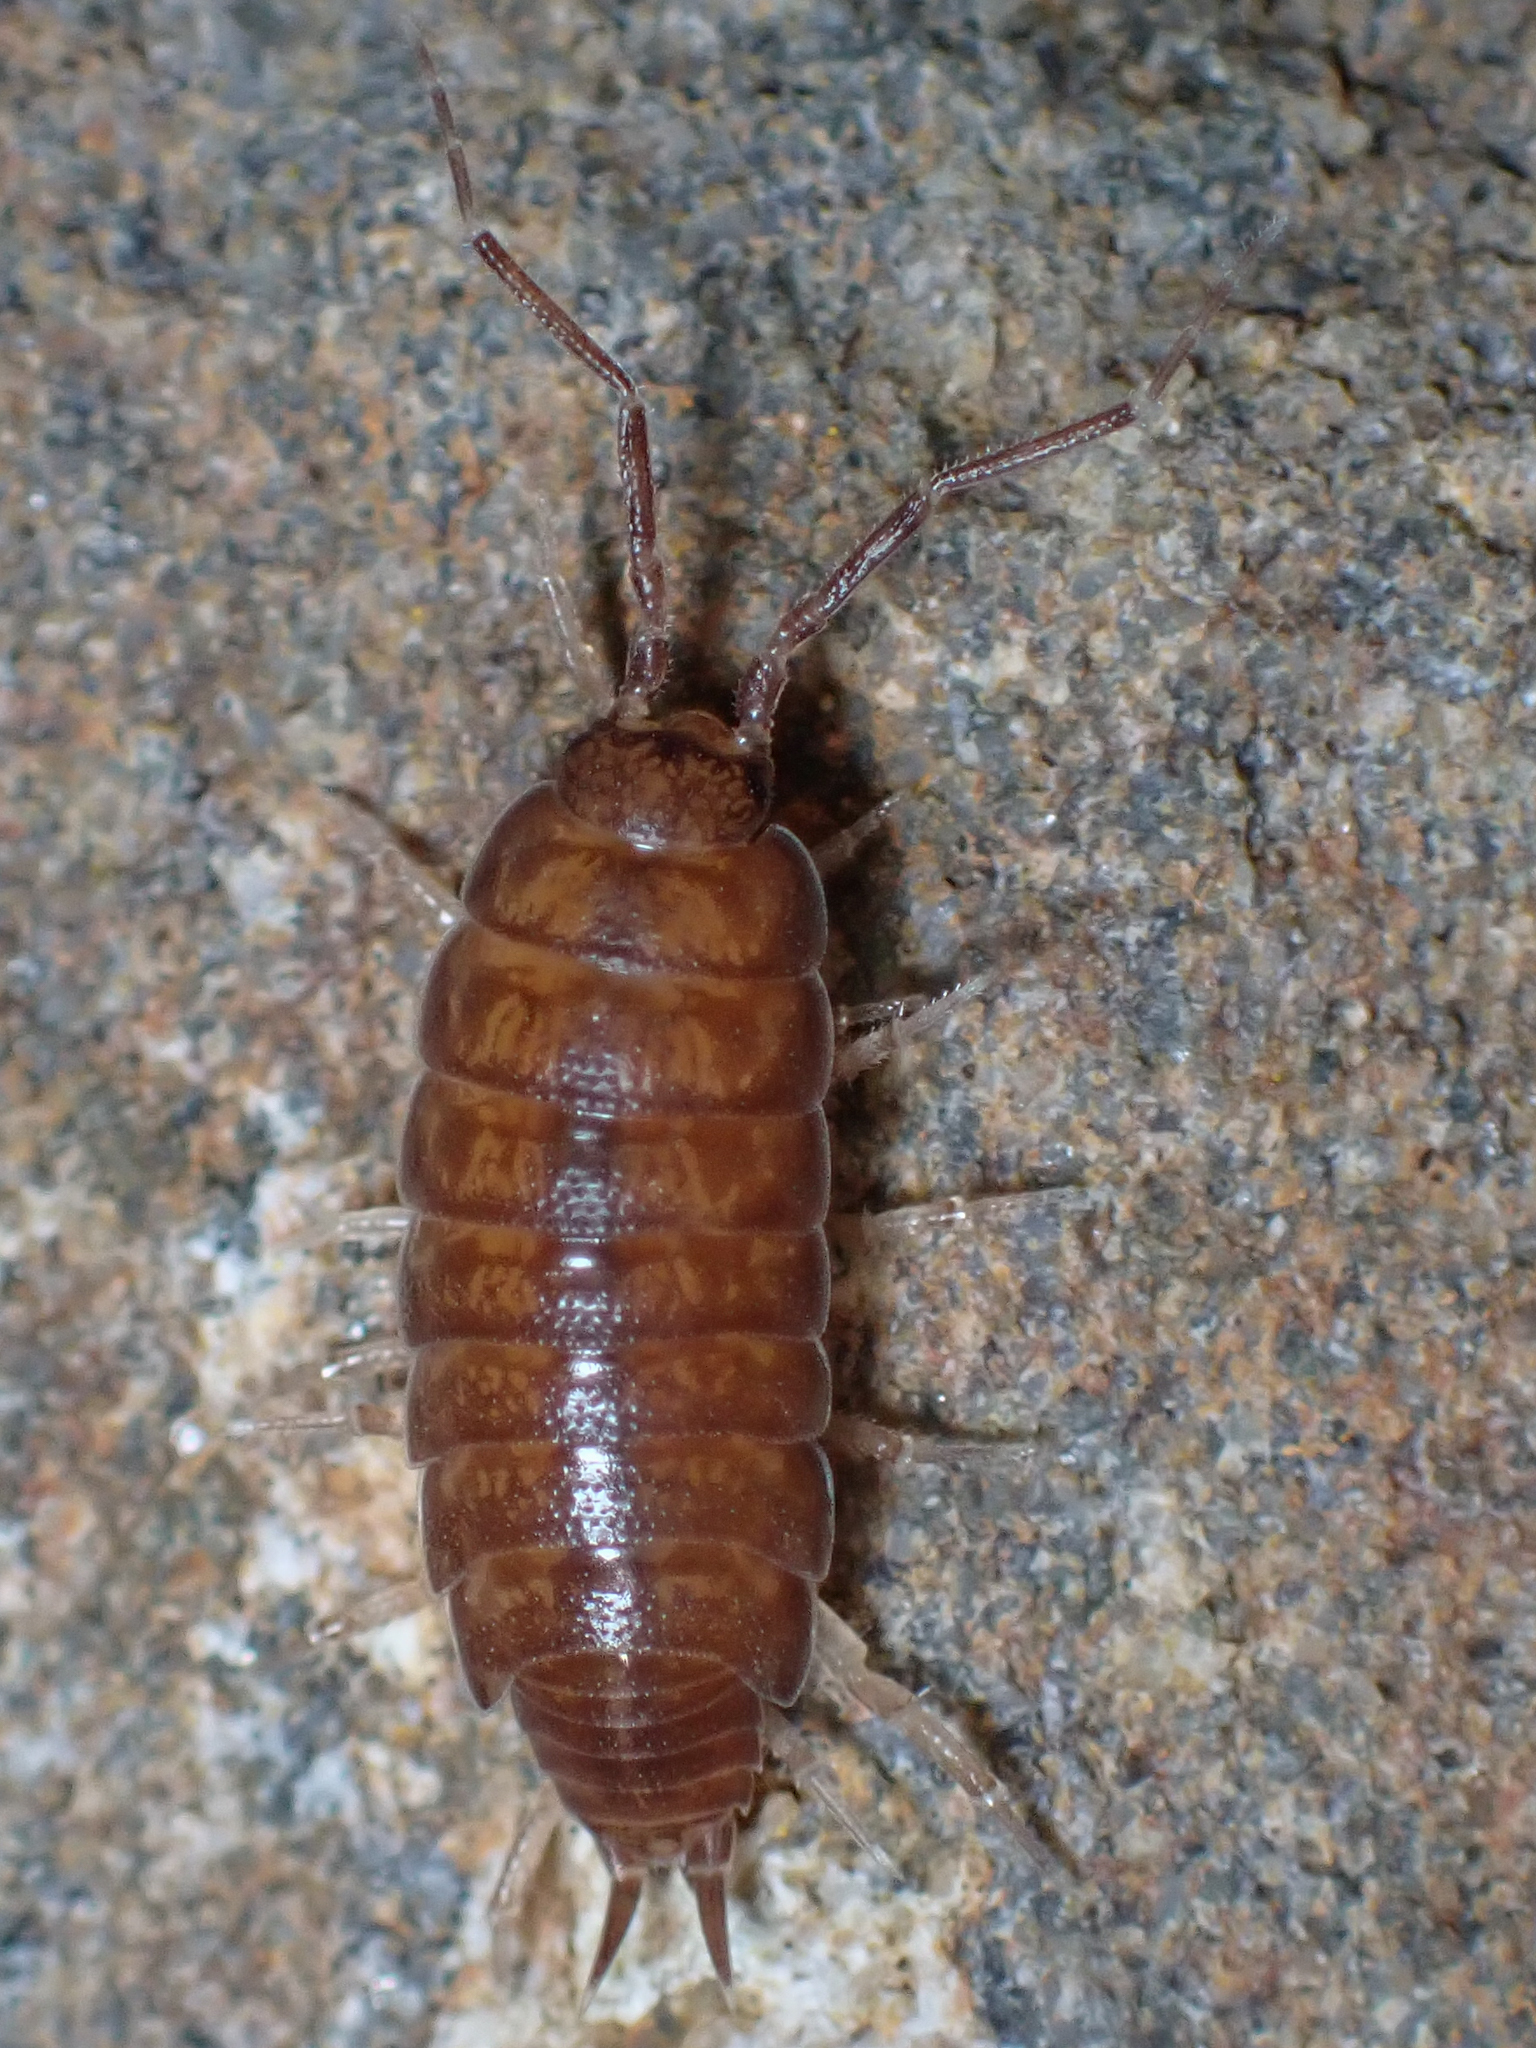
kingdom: Animalia
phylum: Arthropoda
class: Malacostraca
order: Isopoda
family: Halophilosciidae
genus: Littorophiloscia
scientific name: Littorophiloscia richardsonae
